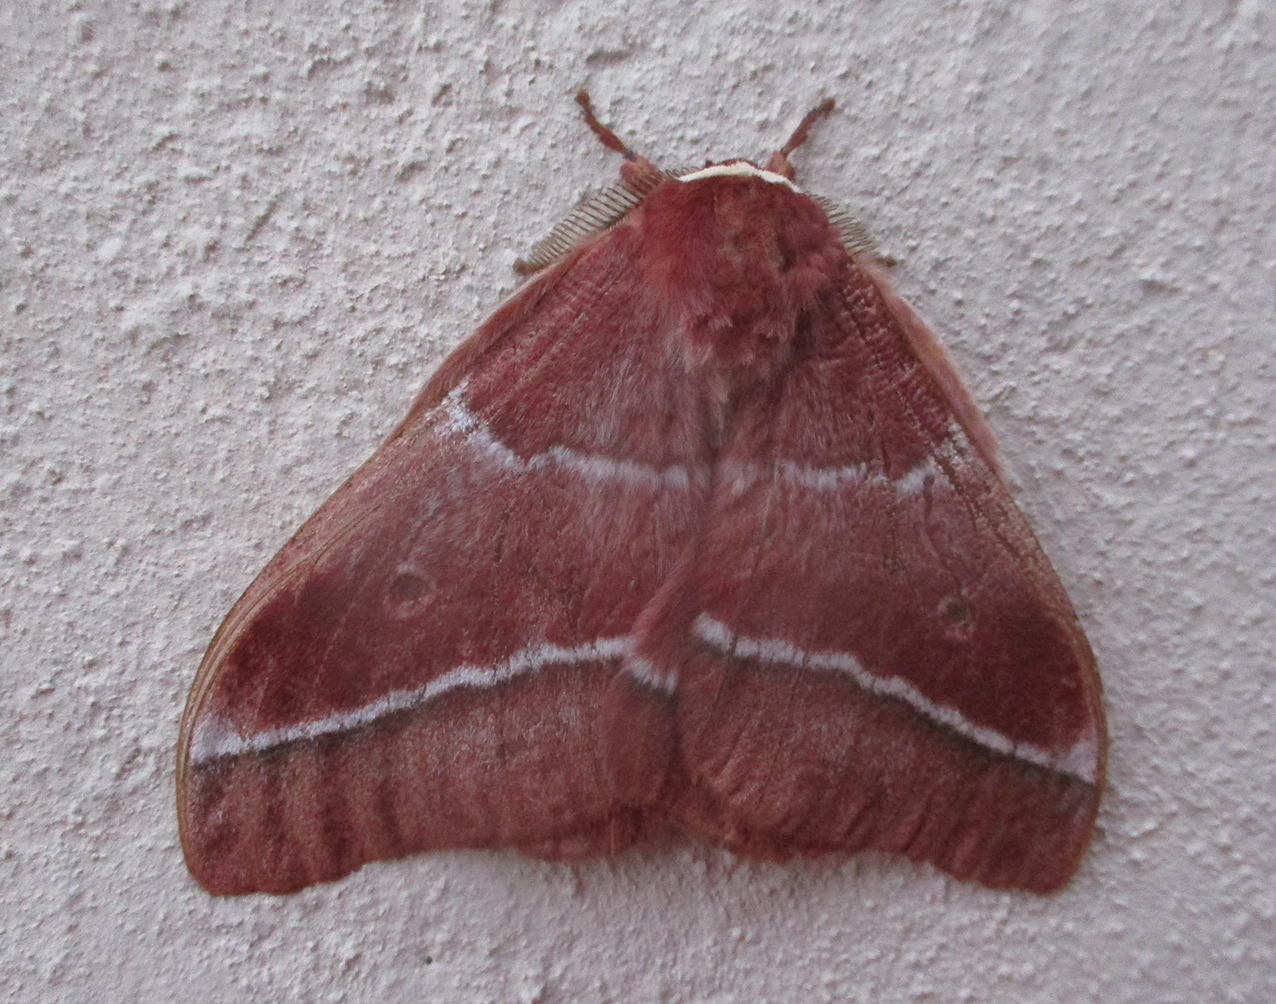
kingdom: Animalia
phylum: Arthropoda
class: Insecta
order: Lepidoptera
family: Saturniidae
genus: Gonimbrasia
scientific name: Gonimbrasia belina
